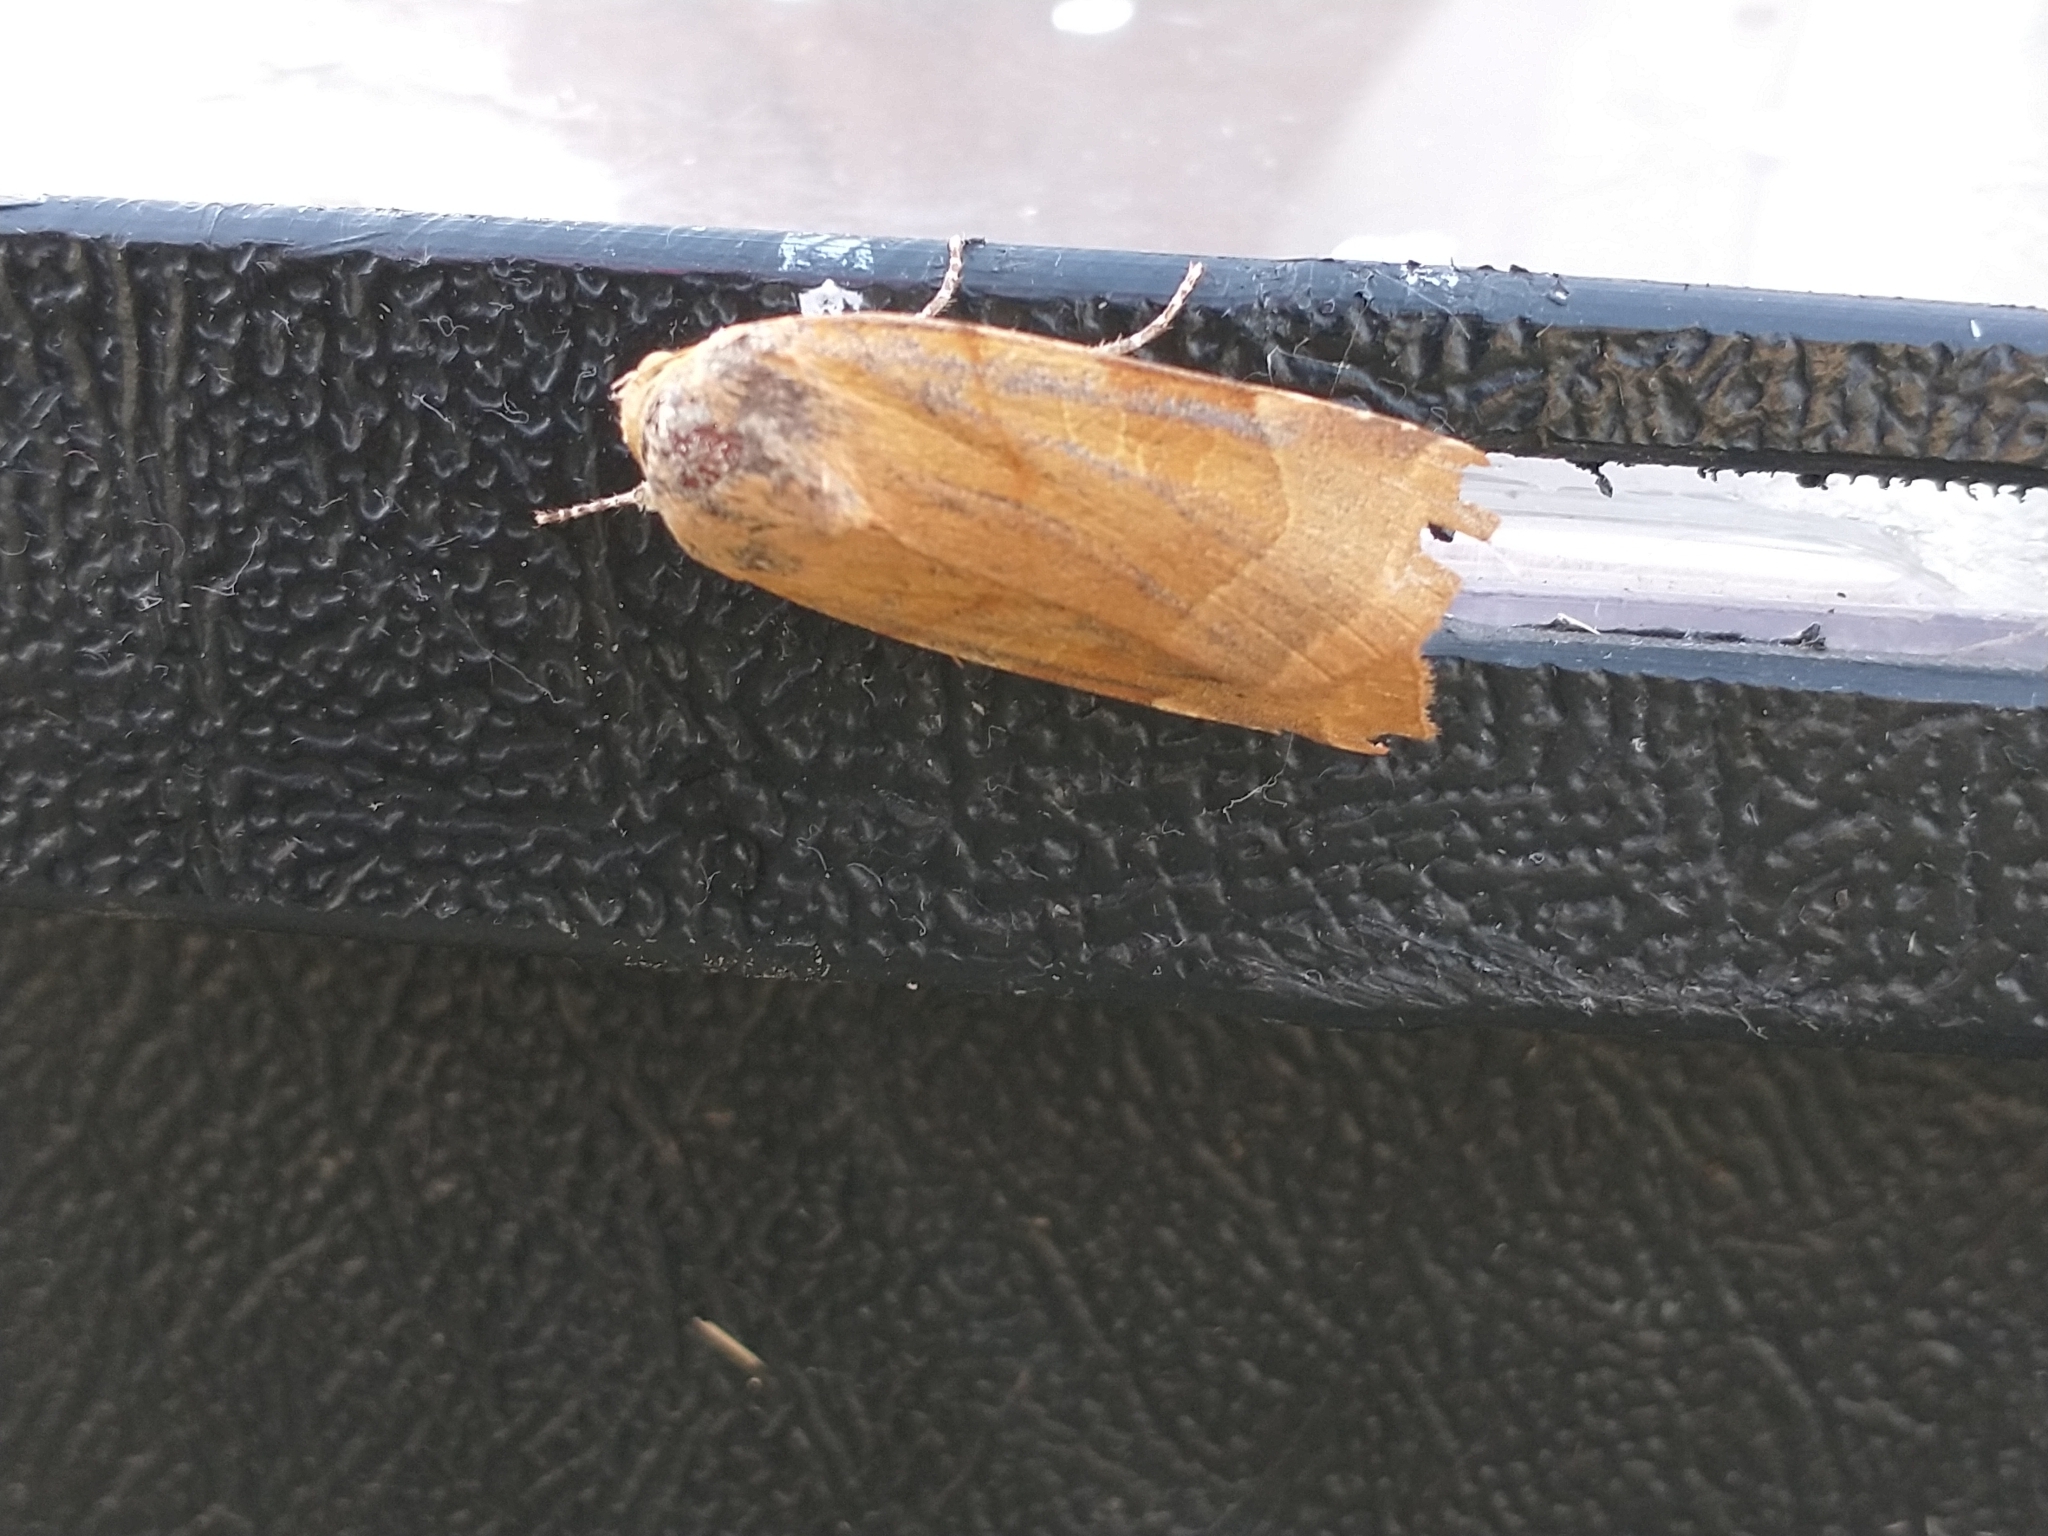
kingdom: Animalia
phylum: Arthropoda
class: Insecta
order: Lepidoptera
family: Noctuidae
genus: Noctua
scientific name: Noctua fimbriata
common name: Broad-bordered yellow underwing
